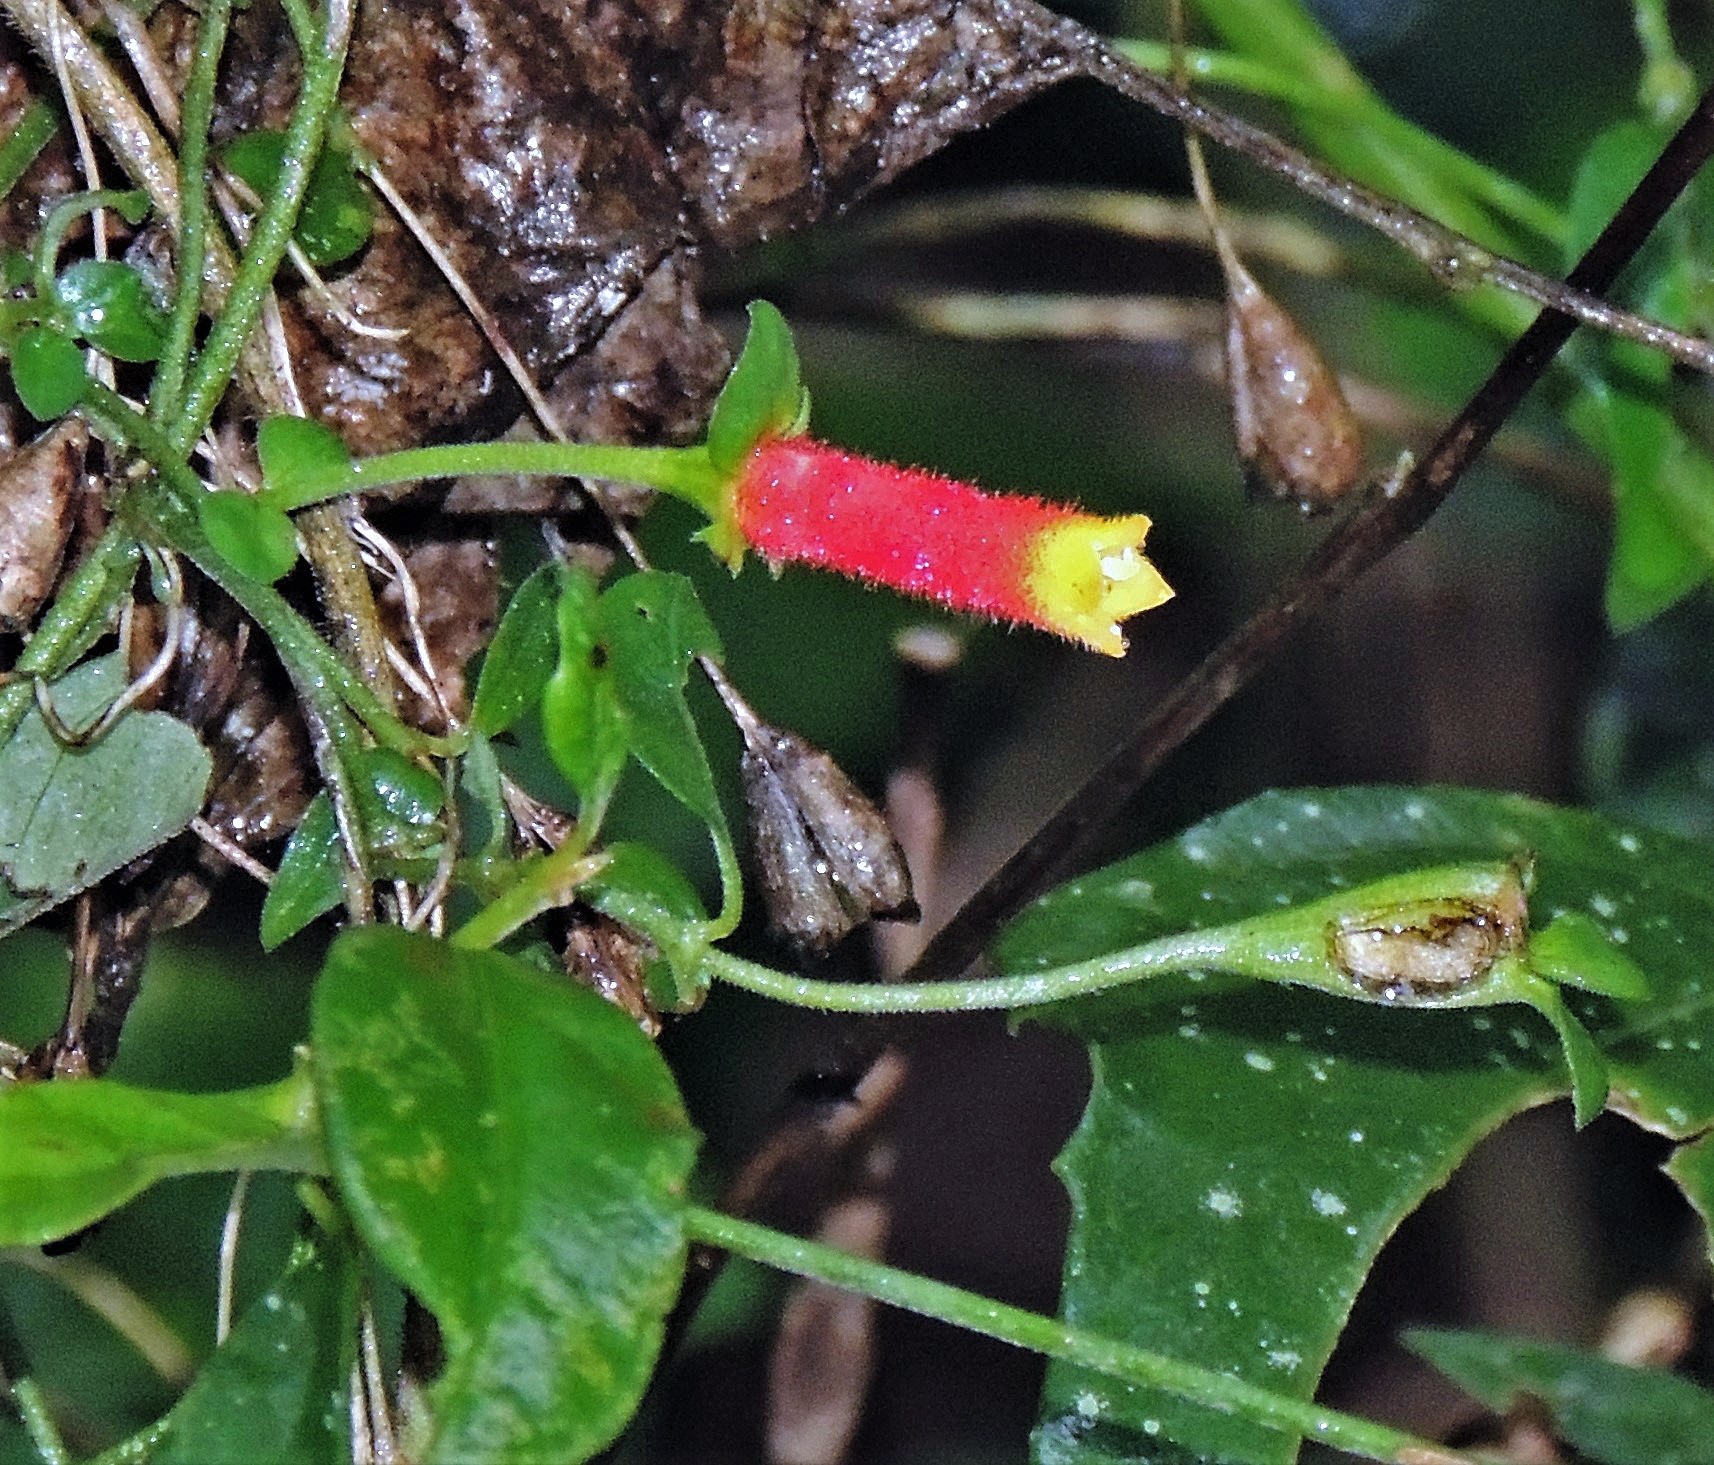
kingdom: Plantae
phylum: Tracheophyta
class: Magnoliopsida
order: Gentianales
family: Rubiaceae
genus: Manettia
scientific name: Manettia paraguariensis
